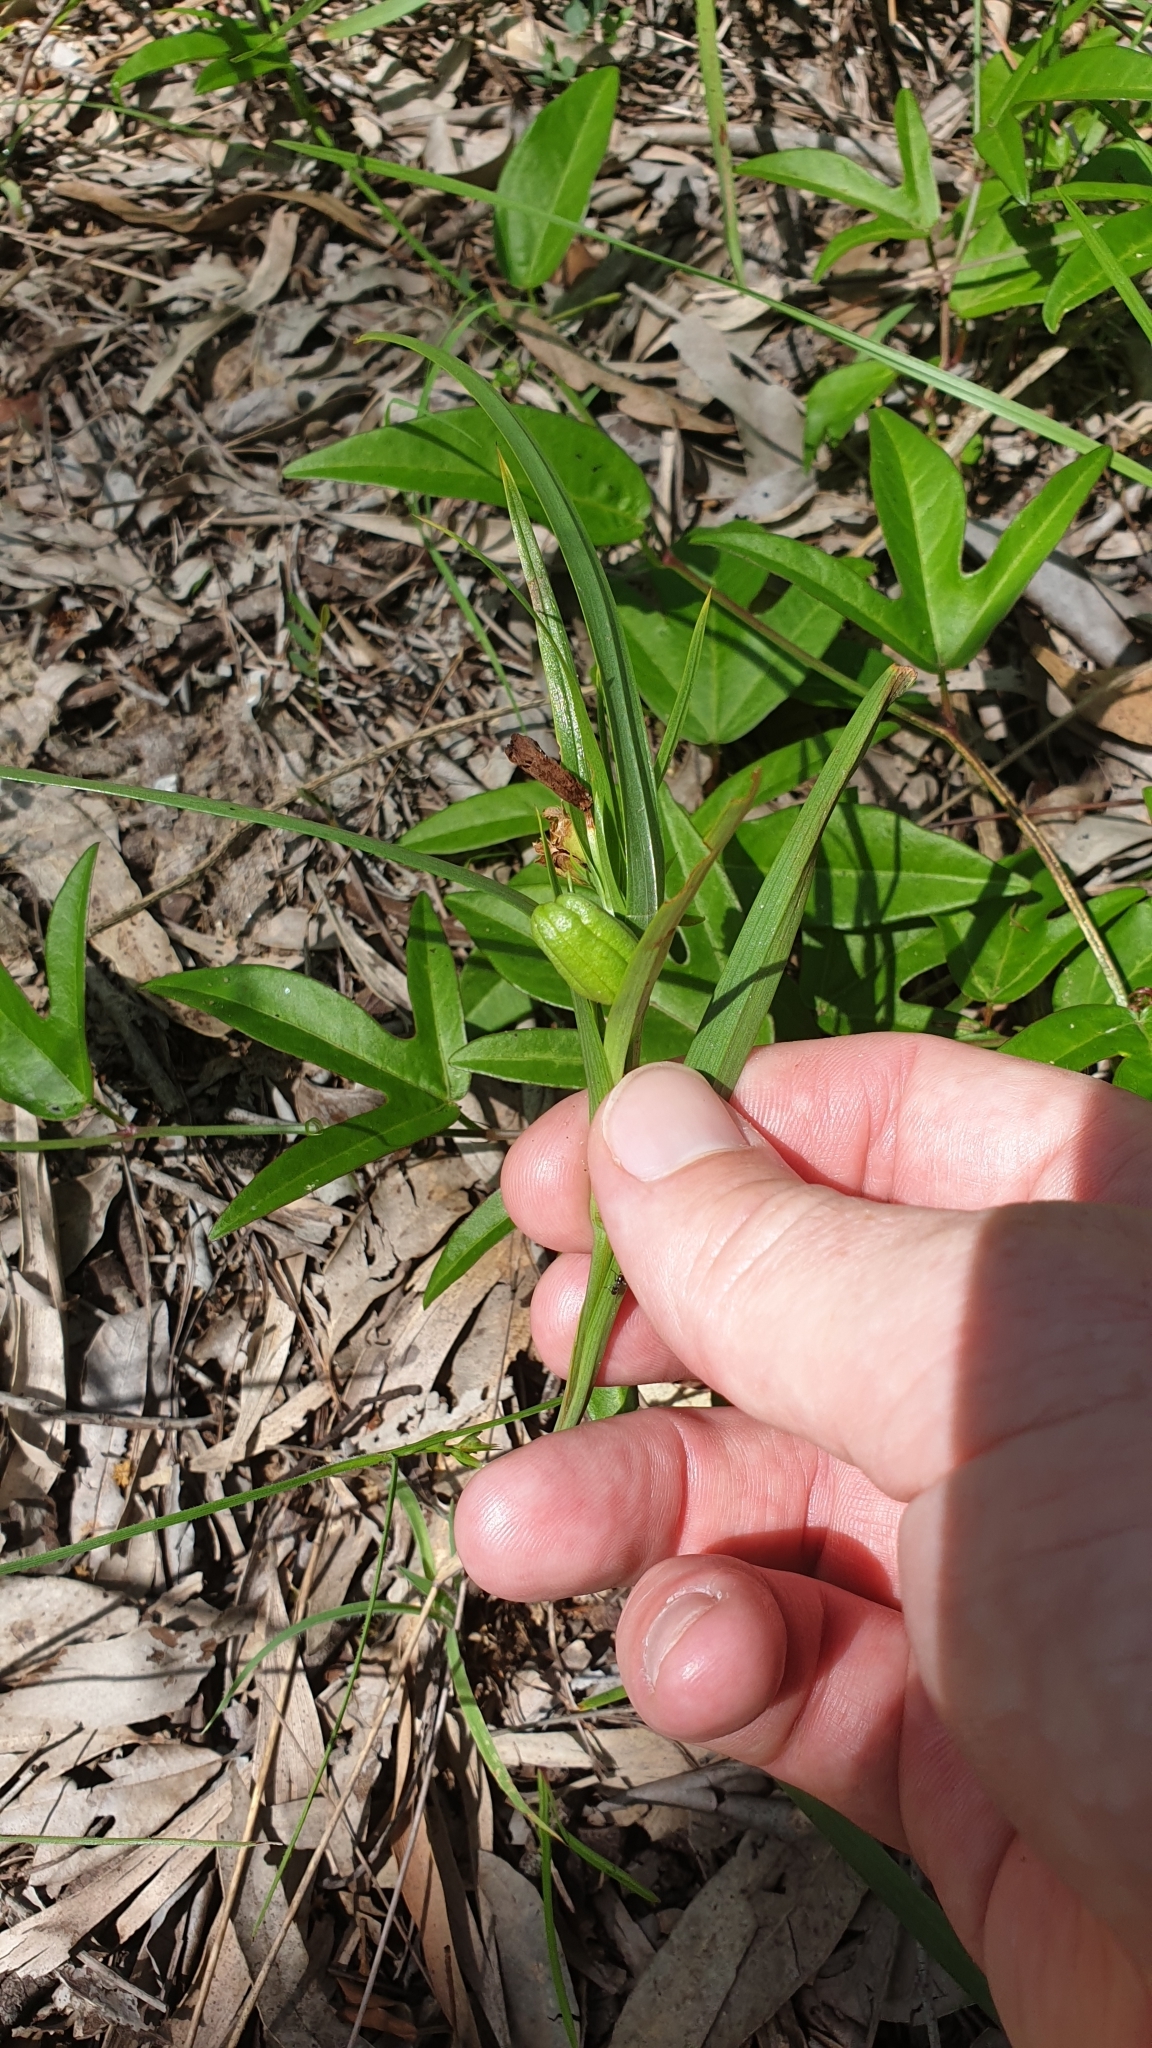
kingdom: Plantae
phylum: Tracheophyta
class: Liliopsida
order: Liliales
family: Colchicaceae
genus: Iphigenia
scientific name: Iphigenia indica
